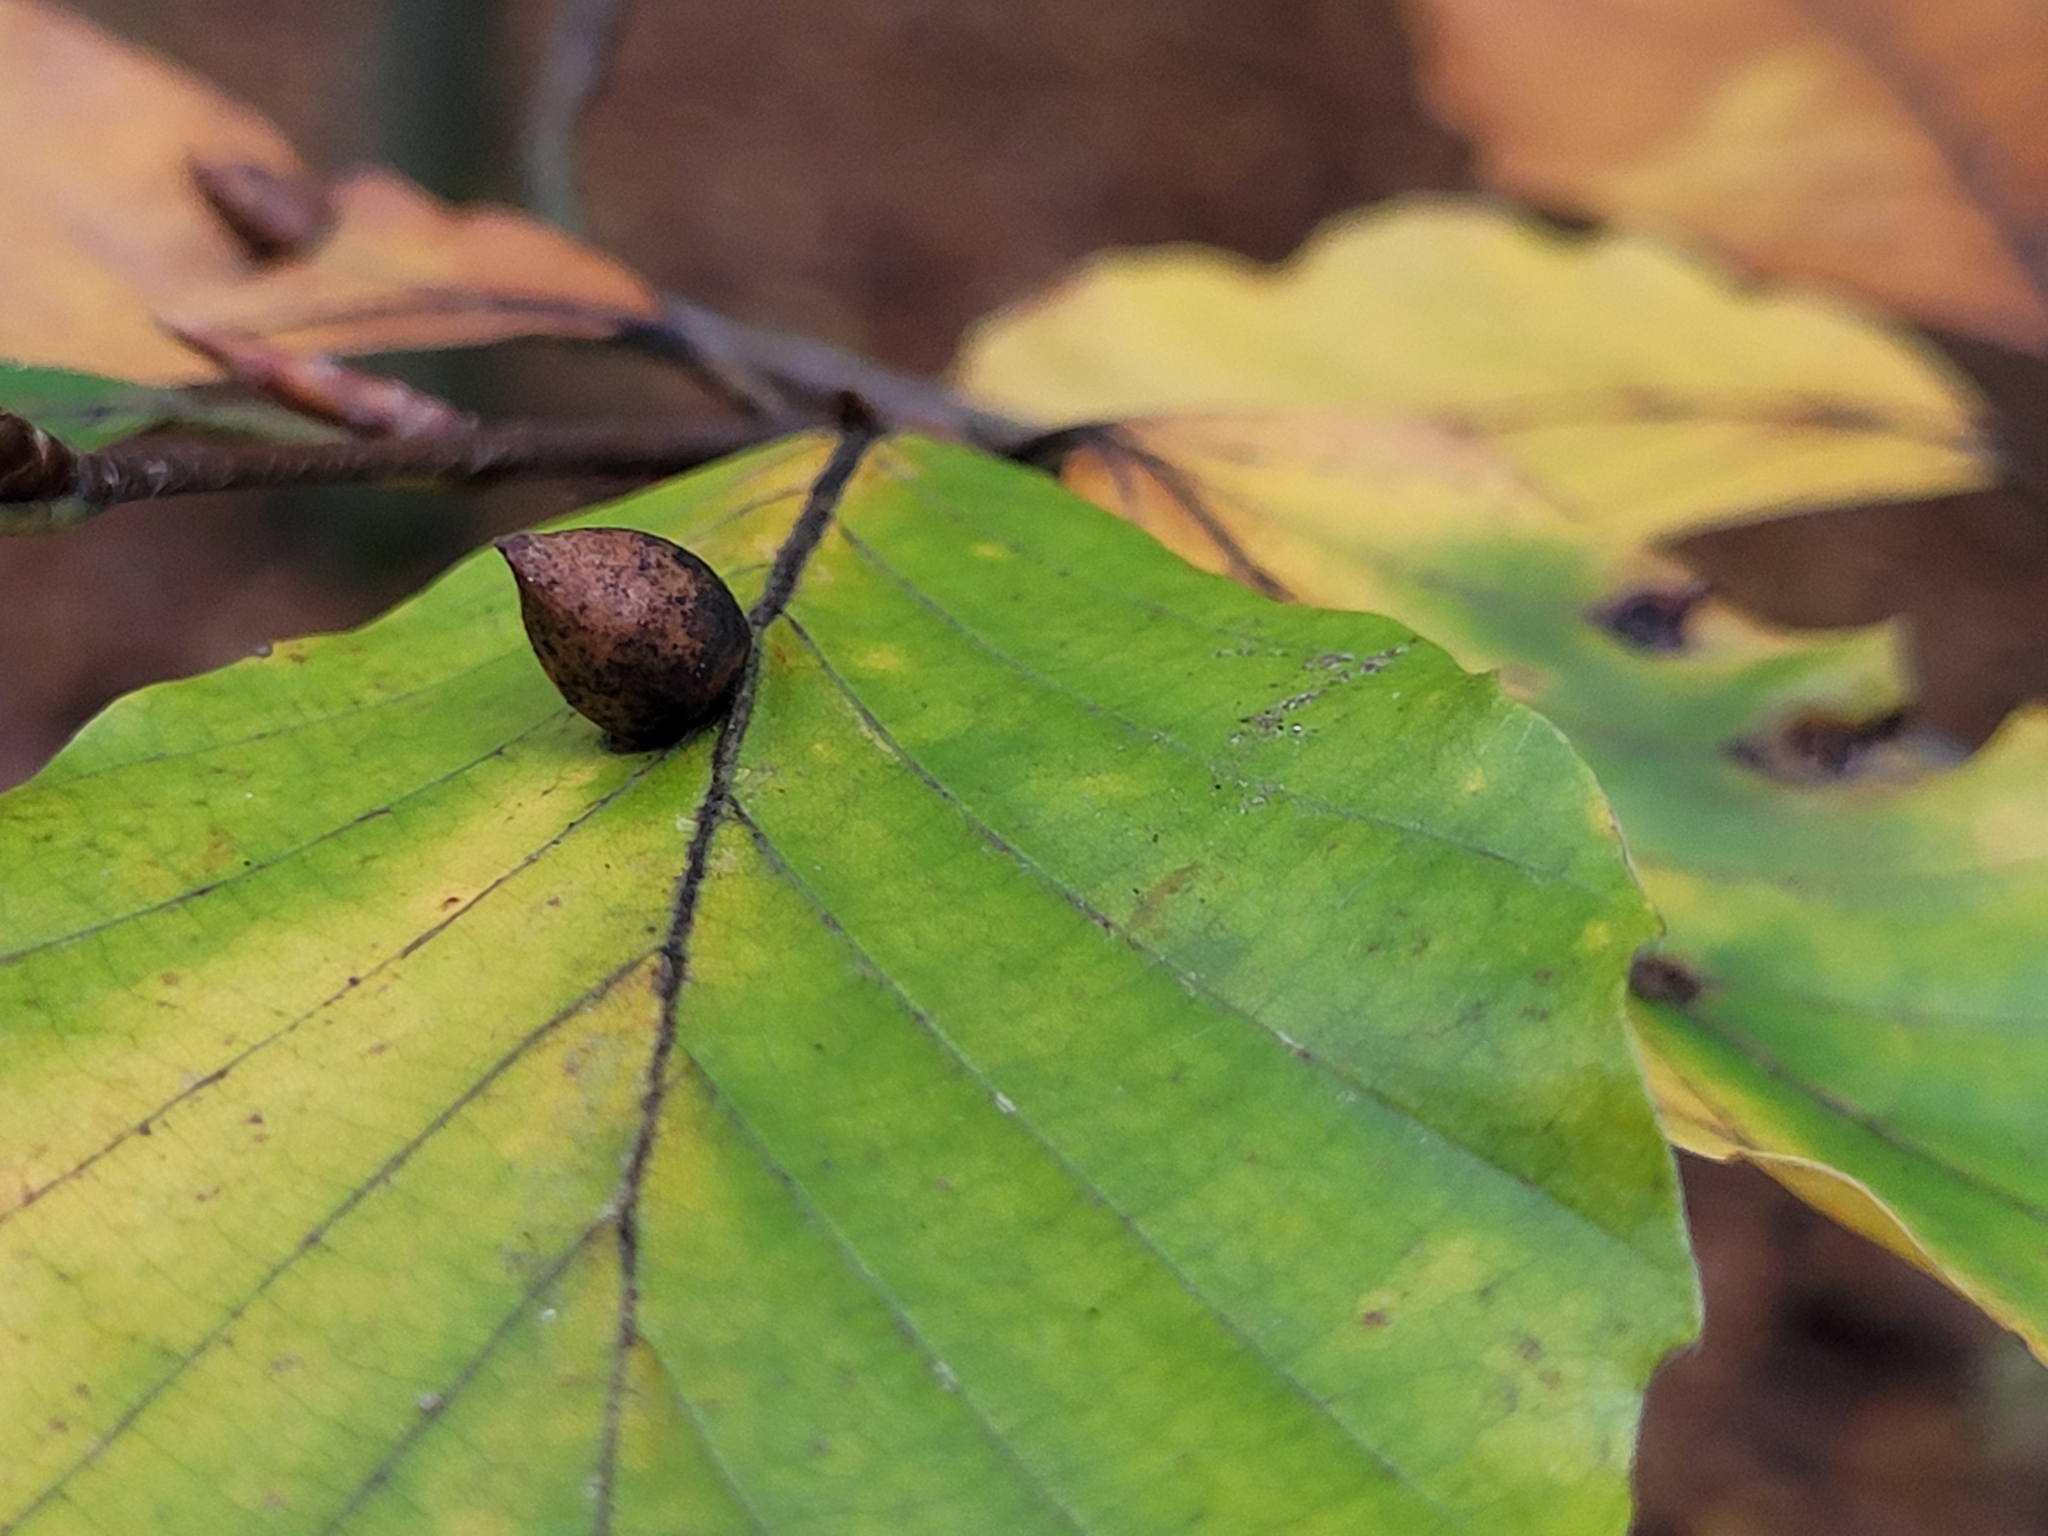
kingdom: Animalia
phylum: Arthropoda
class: Insecta
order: Diptera
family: Cecidomyiidae
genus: Mikiola
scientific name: Mikiola fagi
